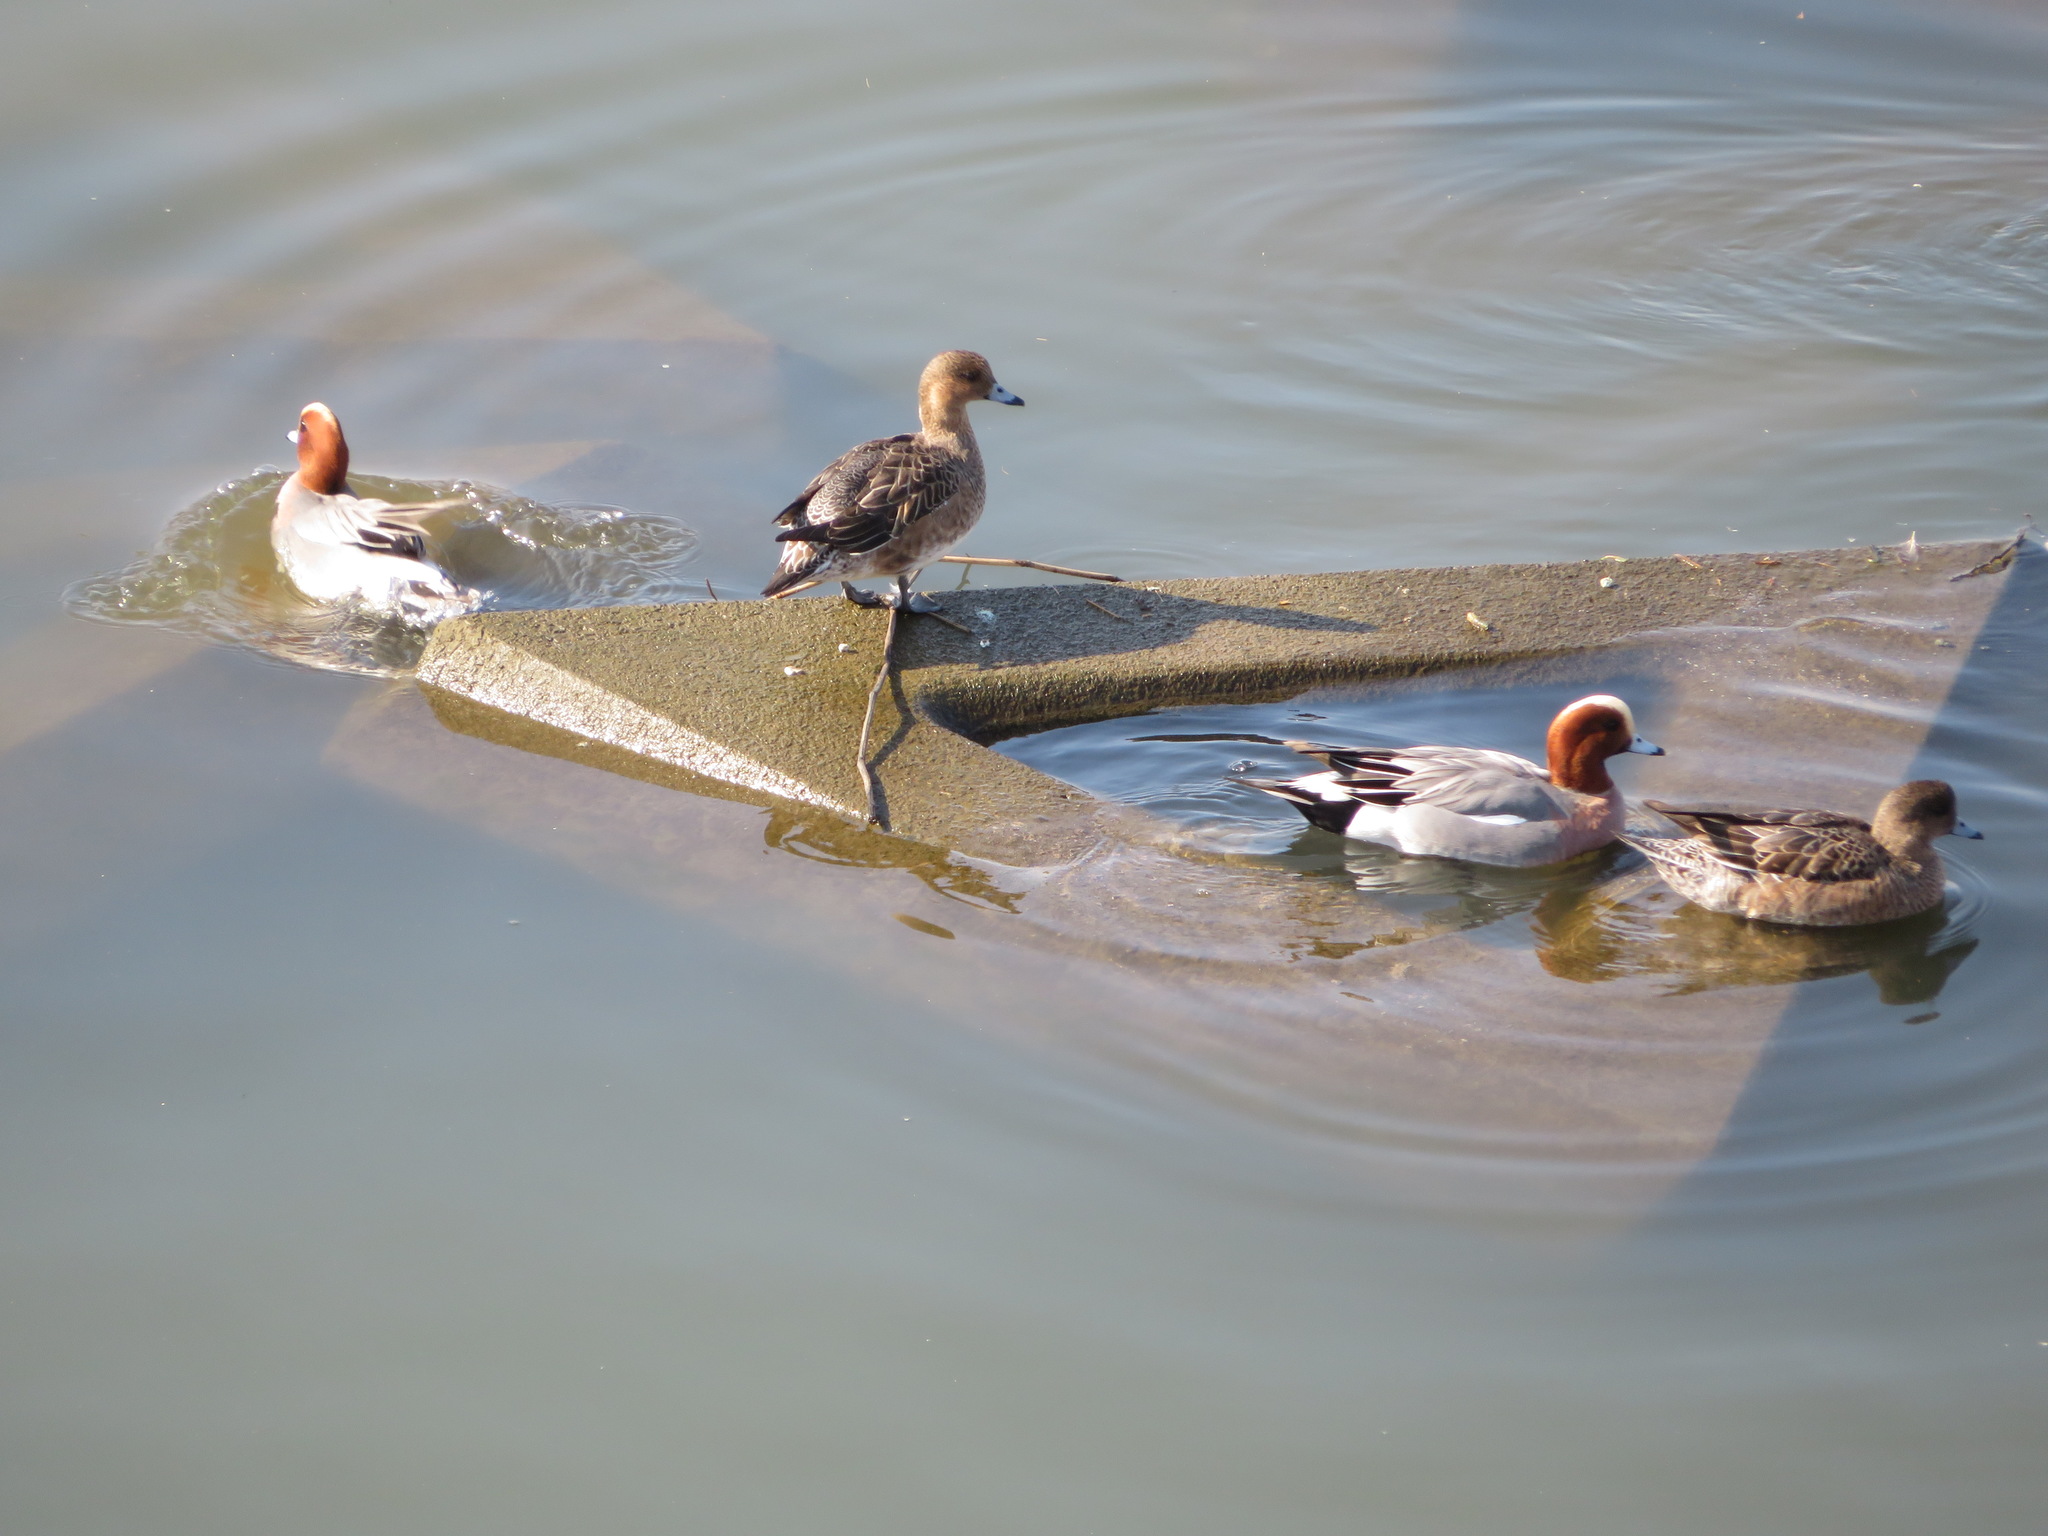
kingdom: Animalia
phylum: Chordata
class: Aves
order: Anseriformes
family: Anatidae
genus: Mareca
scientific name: Mareca penelope
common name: Eurasian wigeon
